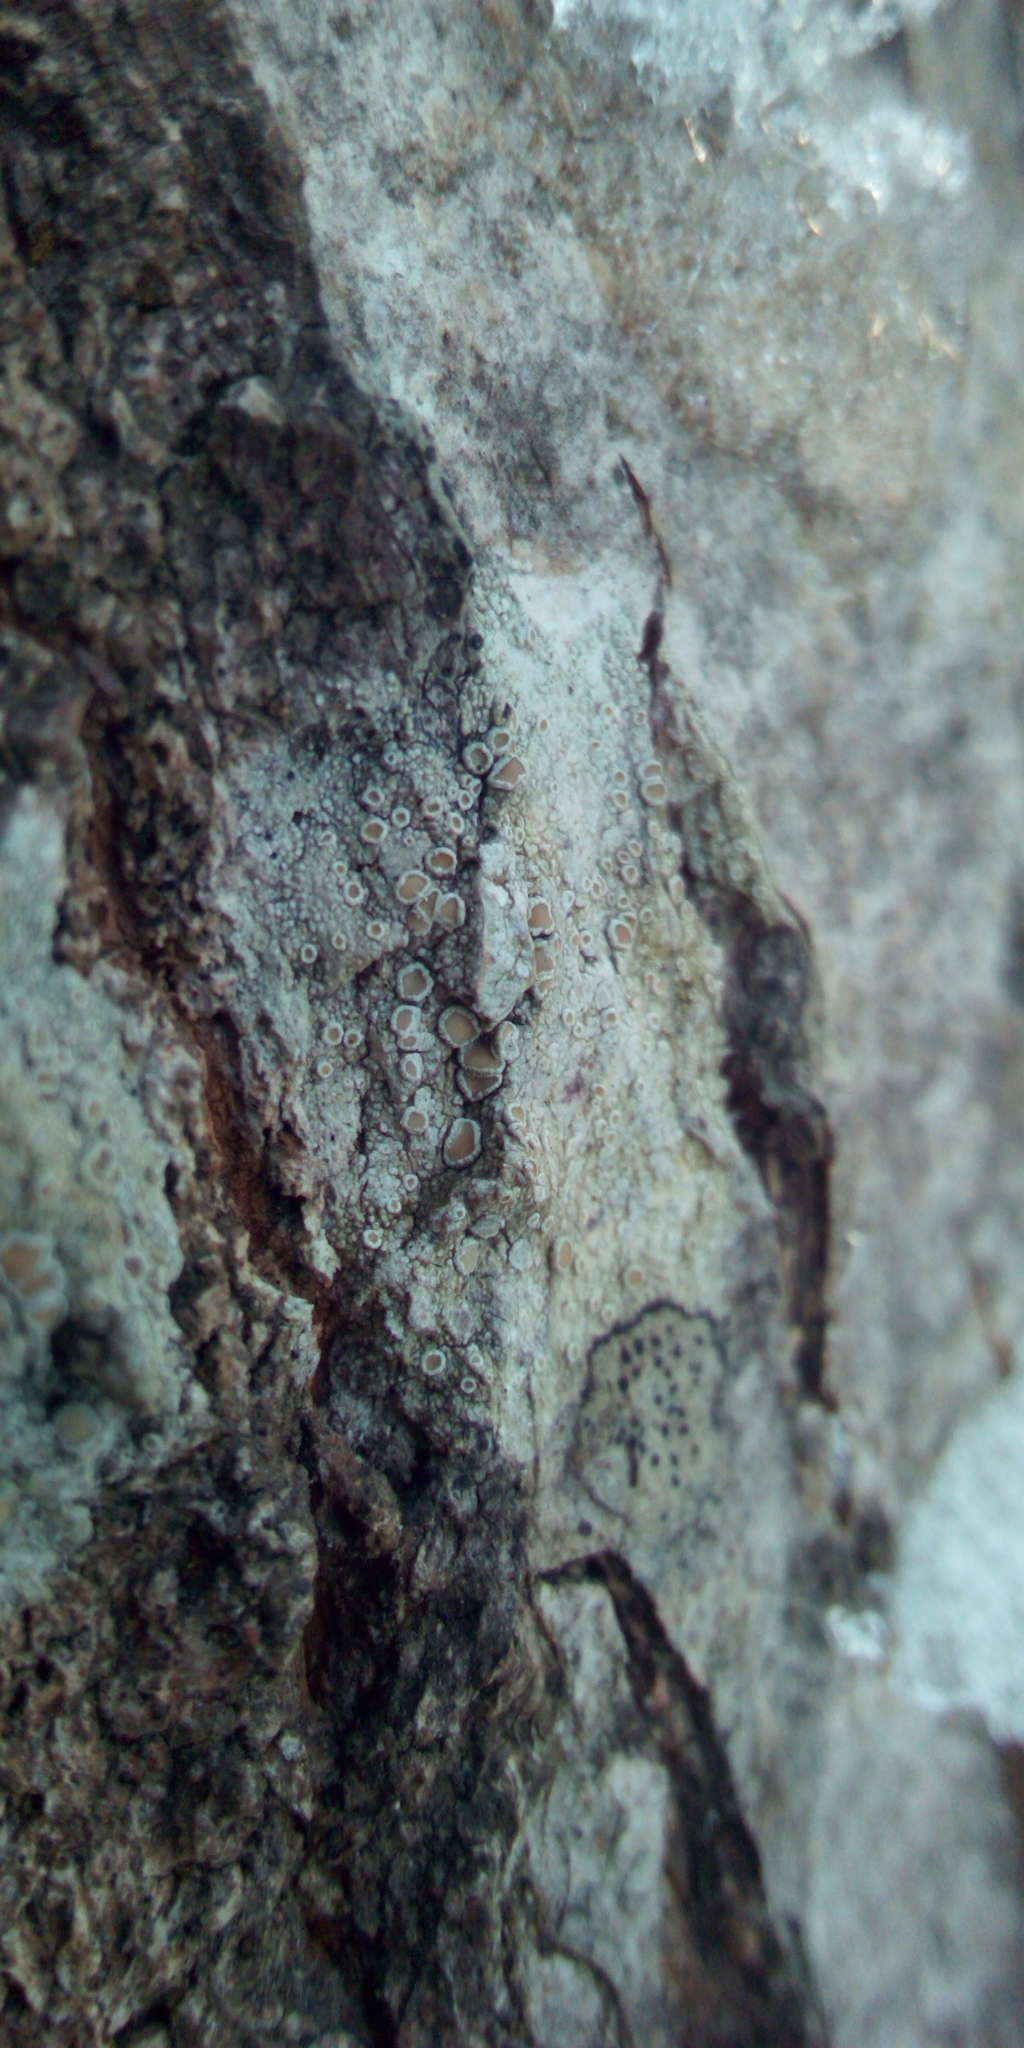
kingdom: Fungi
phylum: Ascomycota
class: Lecanoromycetes
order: Lecanorales
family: Lecanoraceae
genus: Lecanora
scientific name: Lecanora
